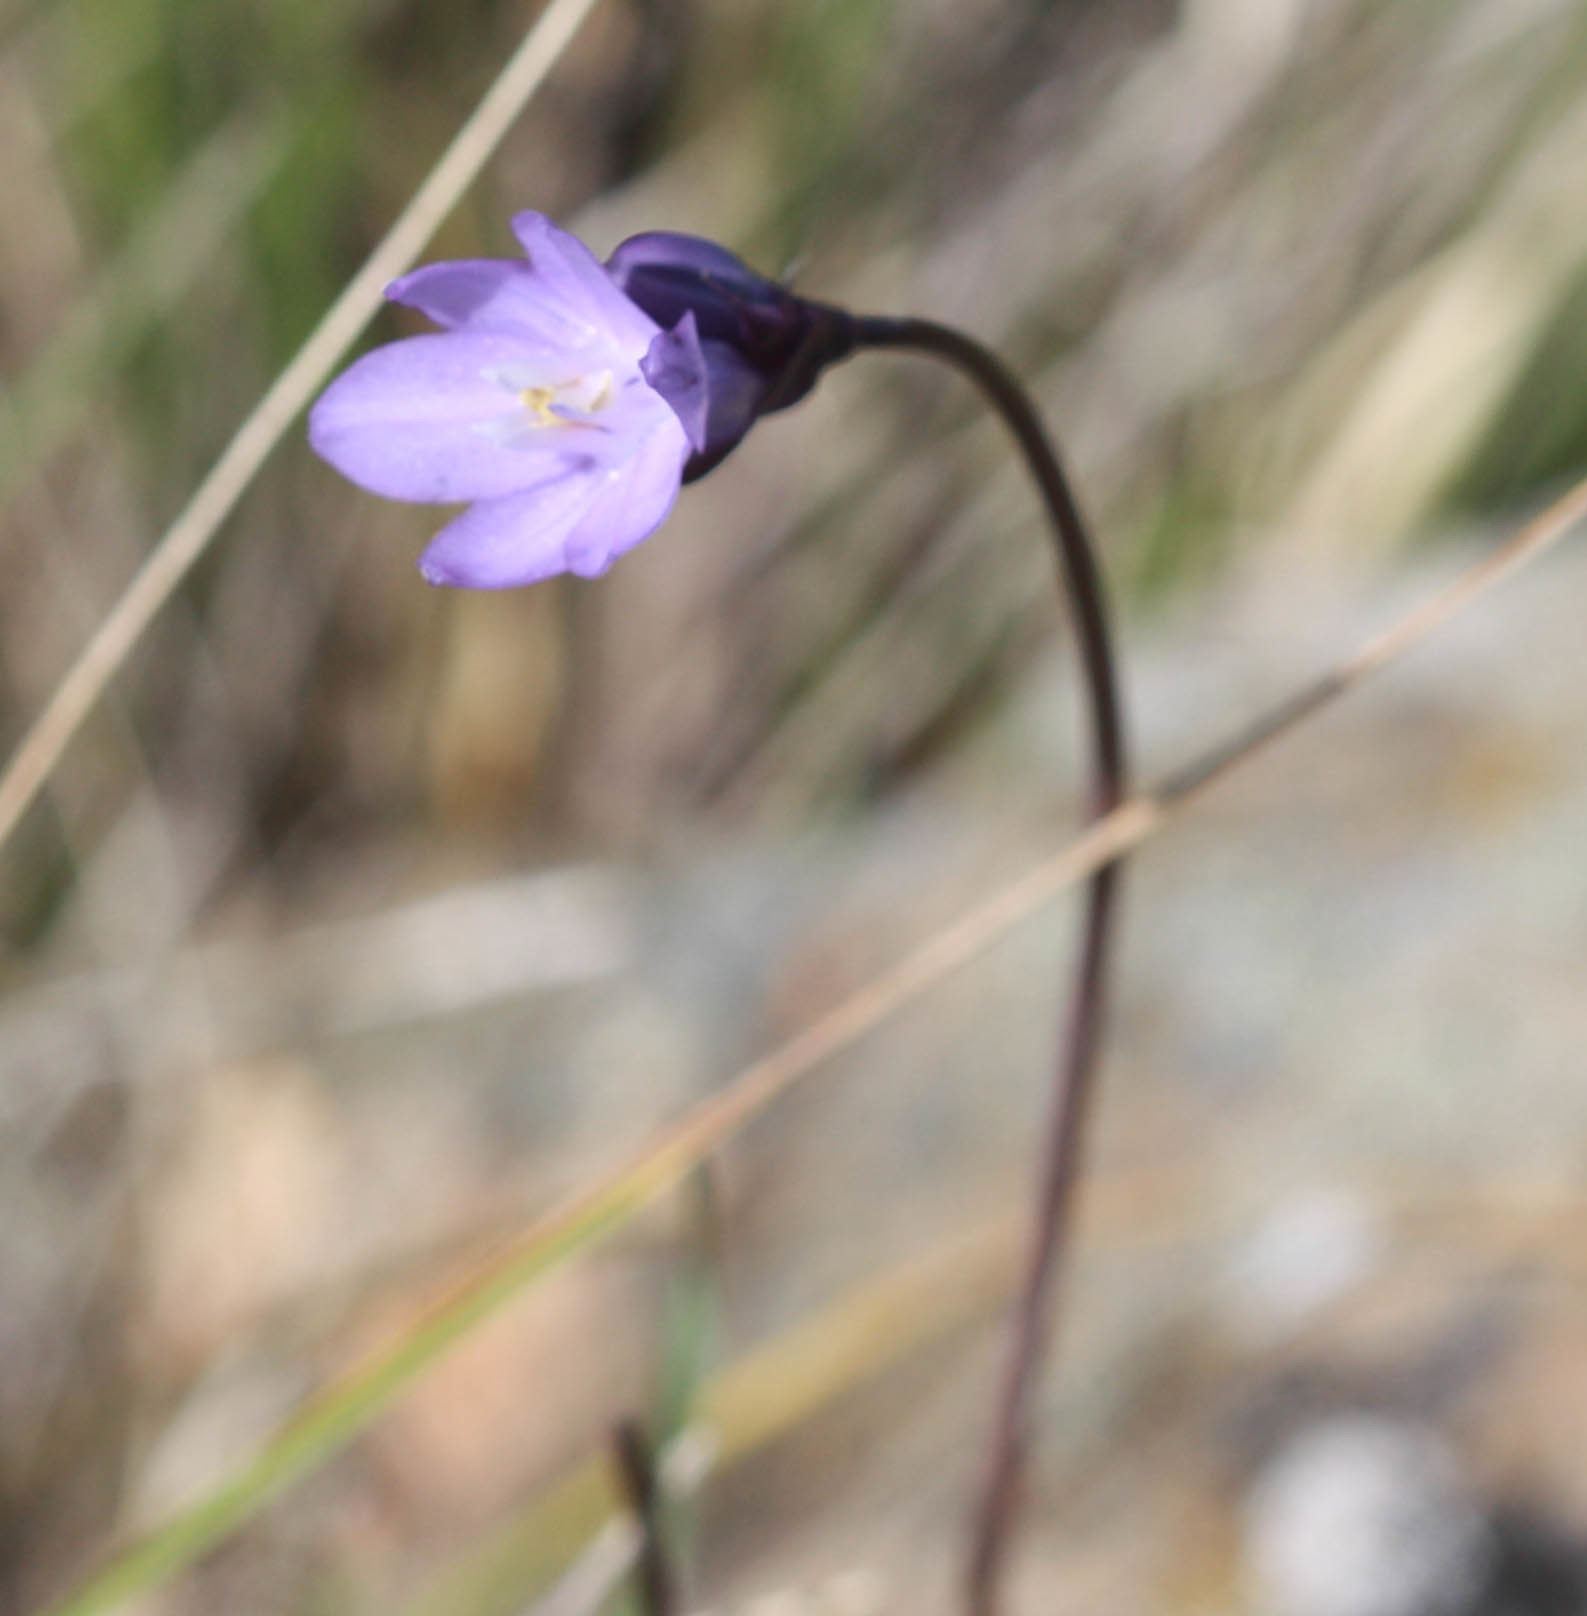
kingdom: Plantae
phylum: Tracheophyta
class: Liliopsida
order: Asparagales
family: Asparagaceae
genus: Dipterostemon
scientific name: Dipterostemon capitatus
